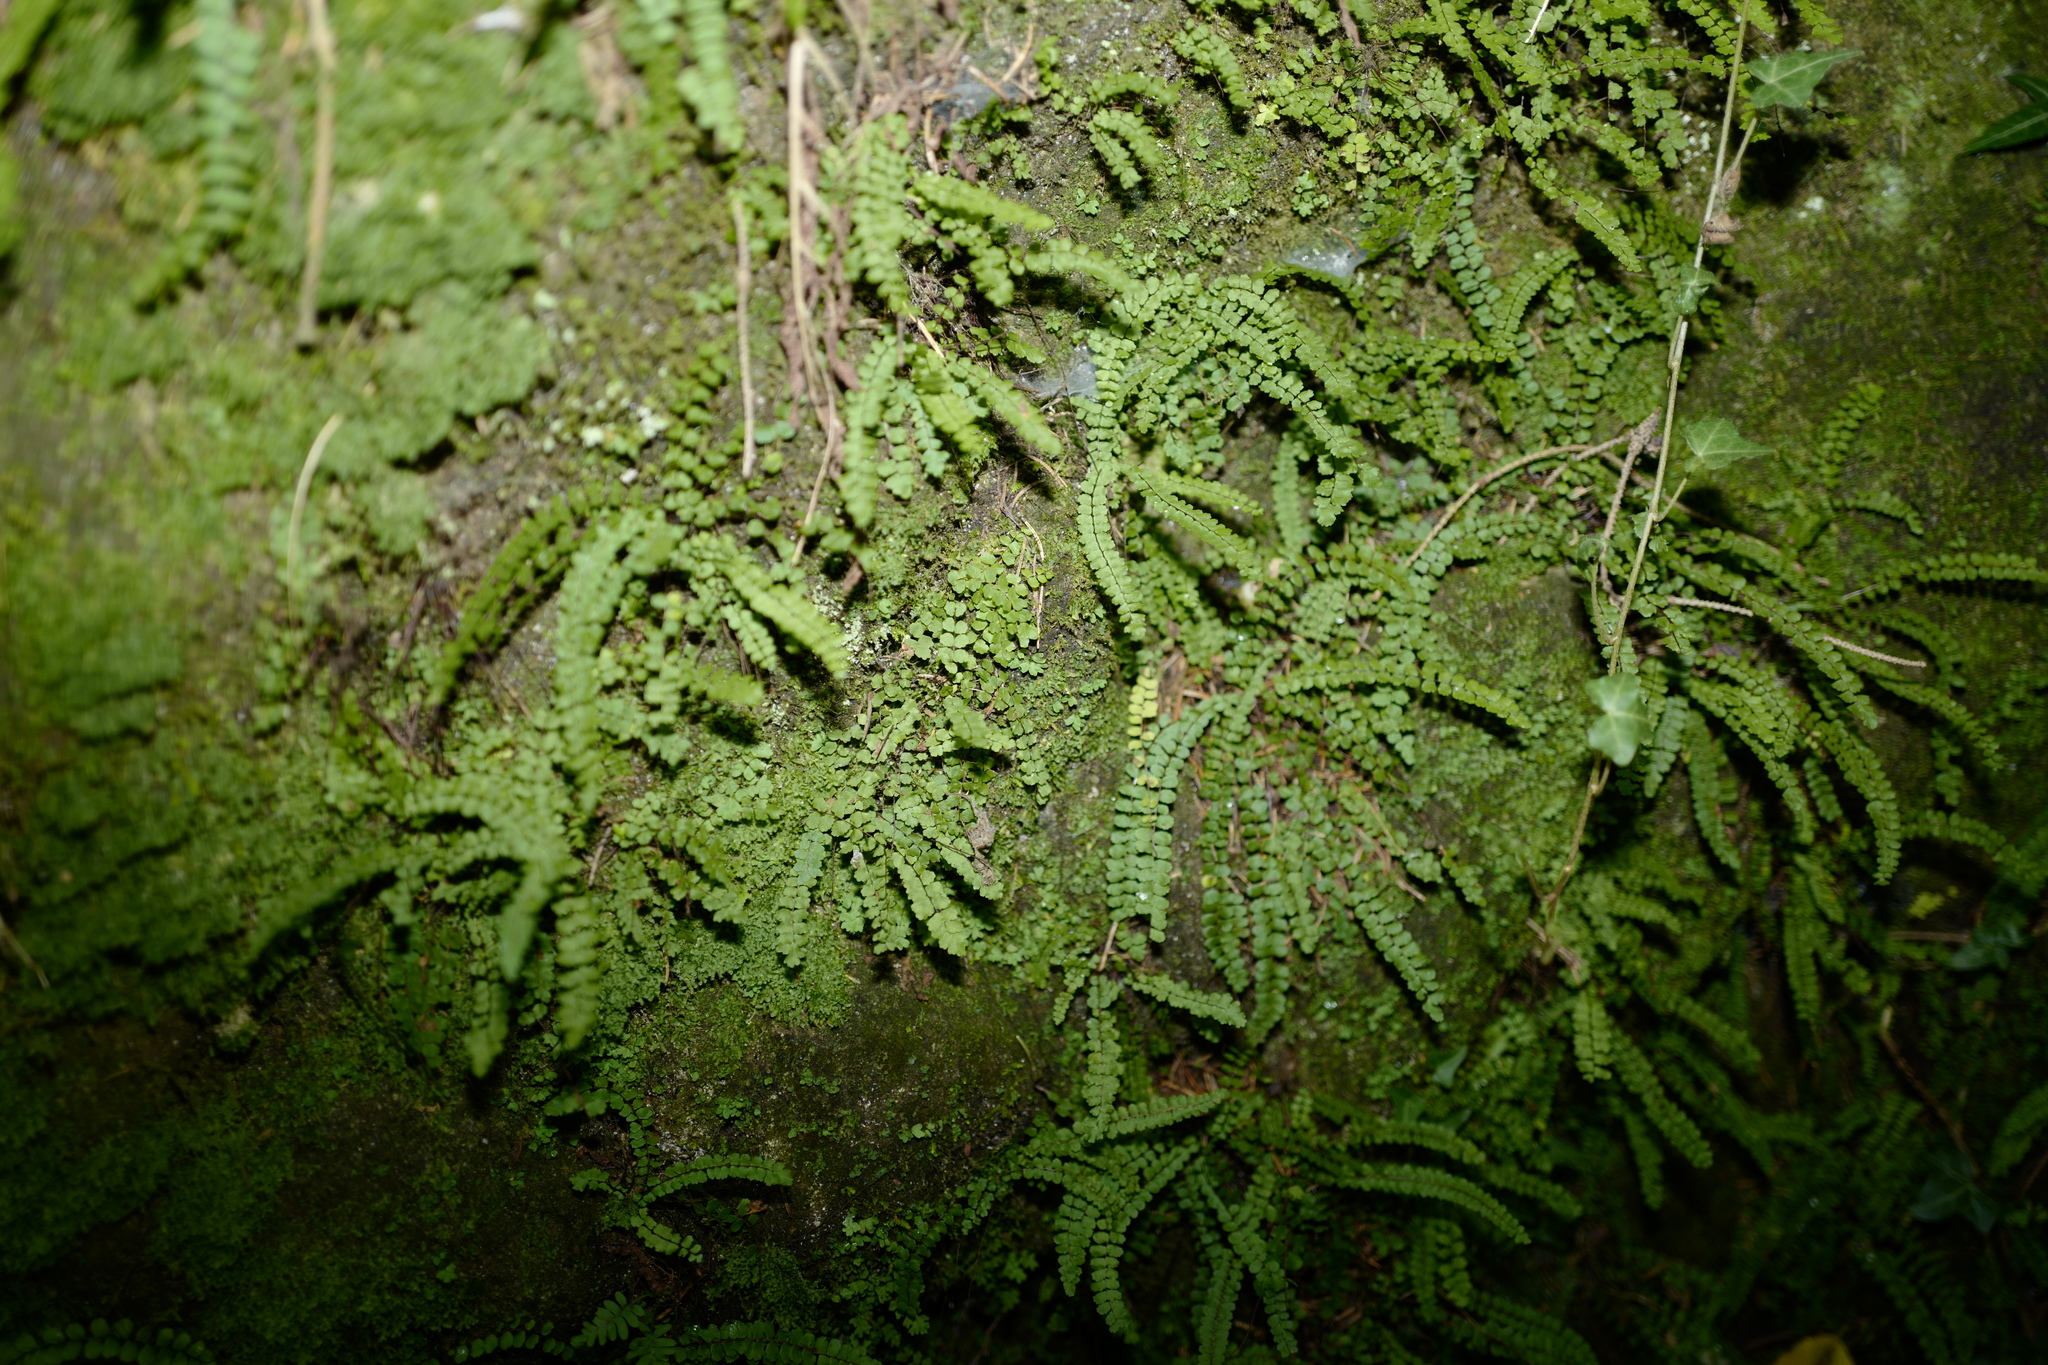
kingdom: Plantae
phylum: Tracheophyta
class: Polypodiopsida
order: Polypodiales
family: Aspleniaceae
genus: Asplenium
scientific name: Asplenium trichomanes
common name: Maidenhair spleenwort
